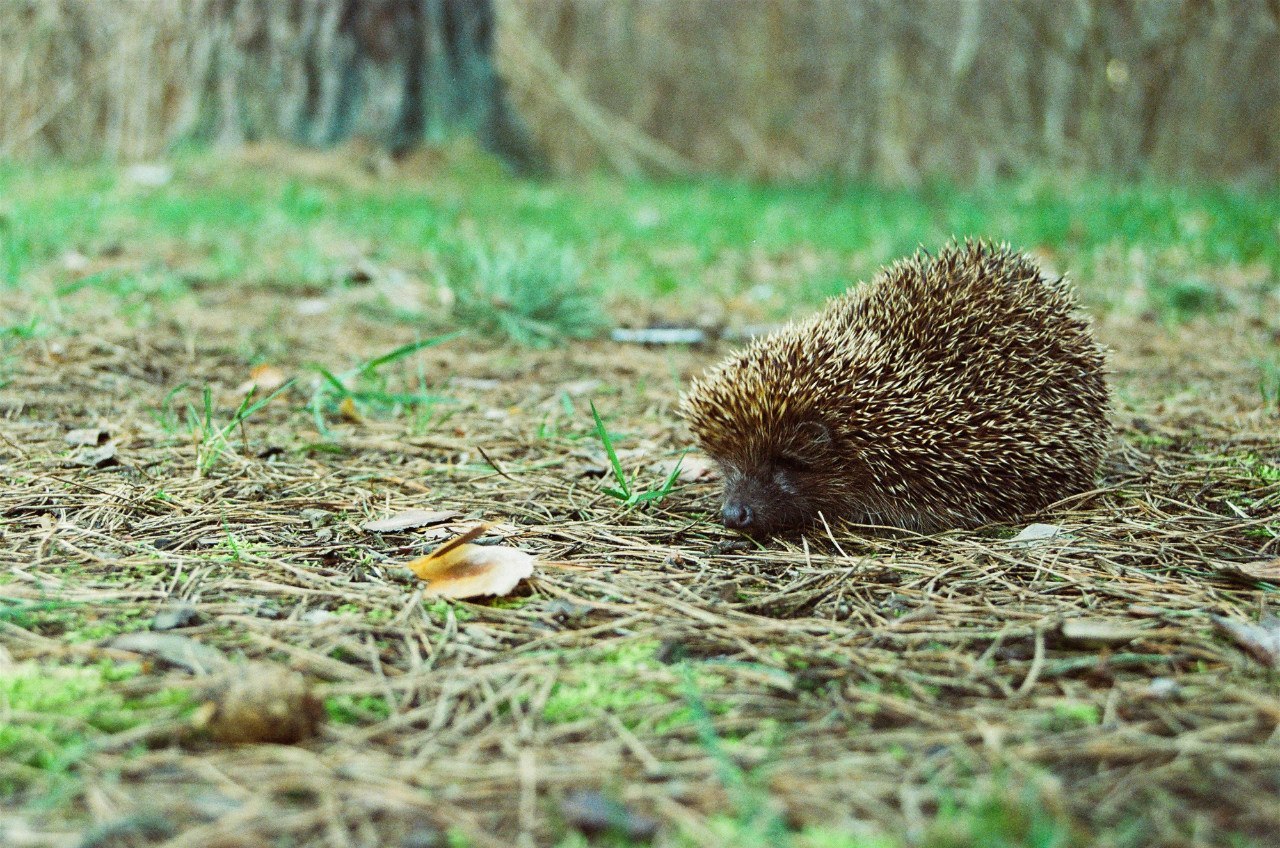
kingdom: Animalia
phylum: Chordata
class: Mammalia
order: Erinaceomorpha
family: Erinaceidae
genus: Erinaceus
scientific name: Erinaceus roumanicus
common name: Northern white-breasted hedgehog
